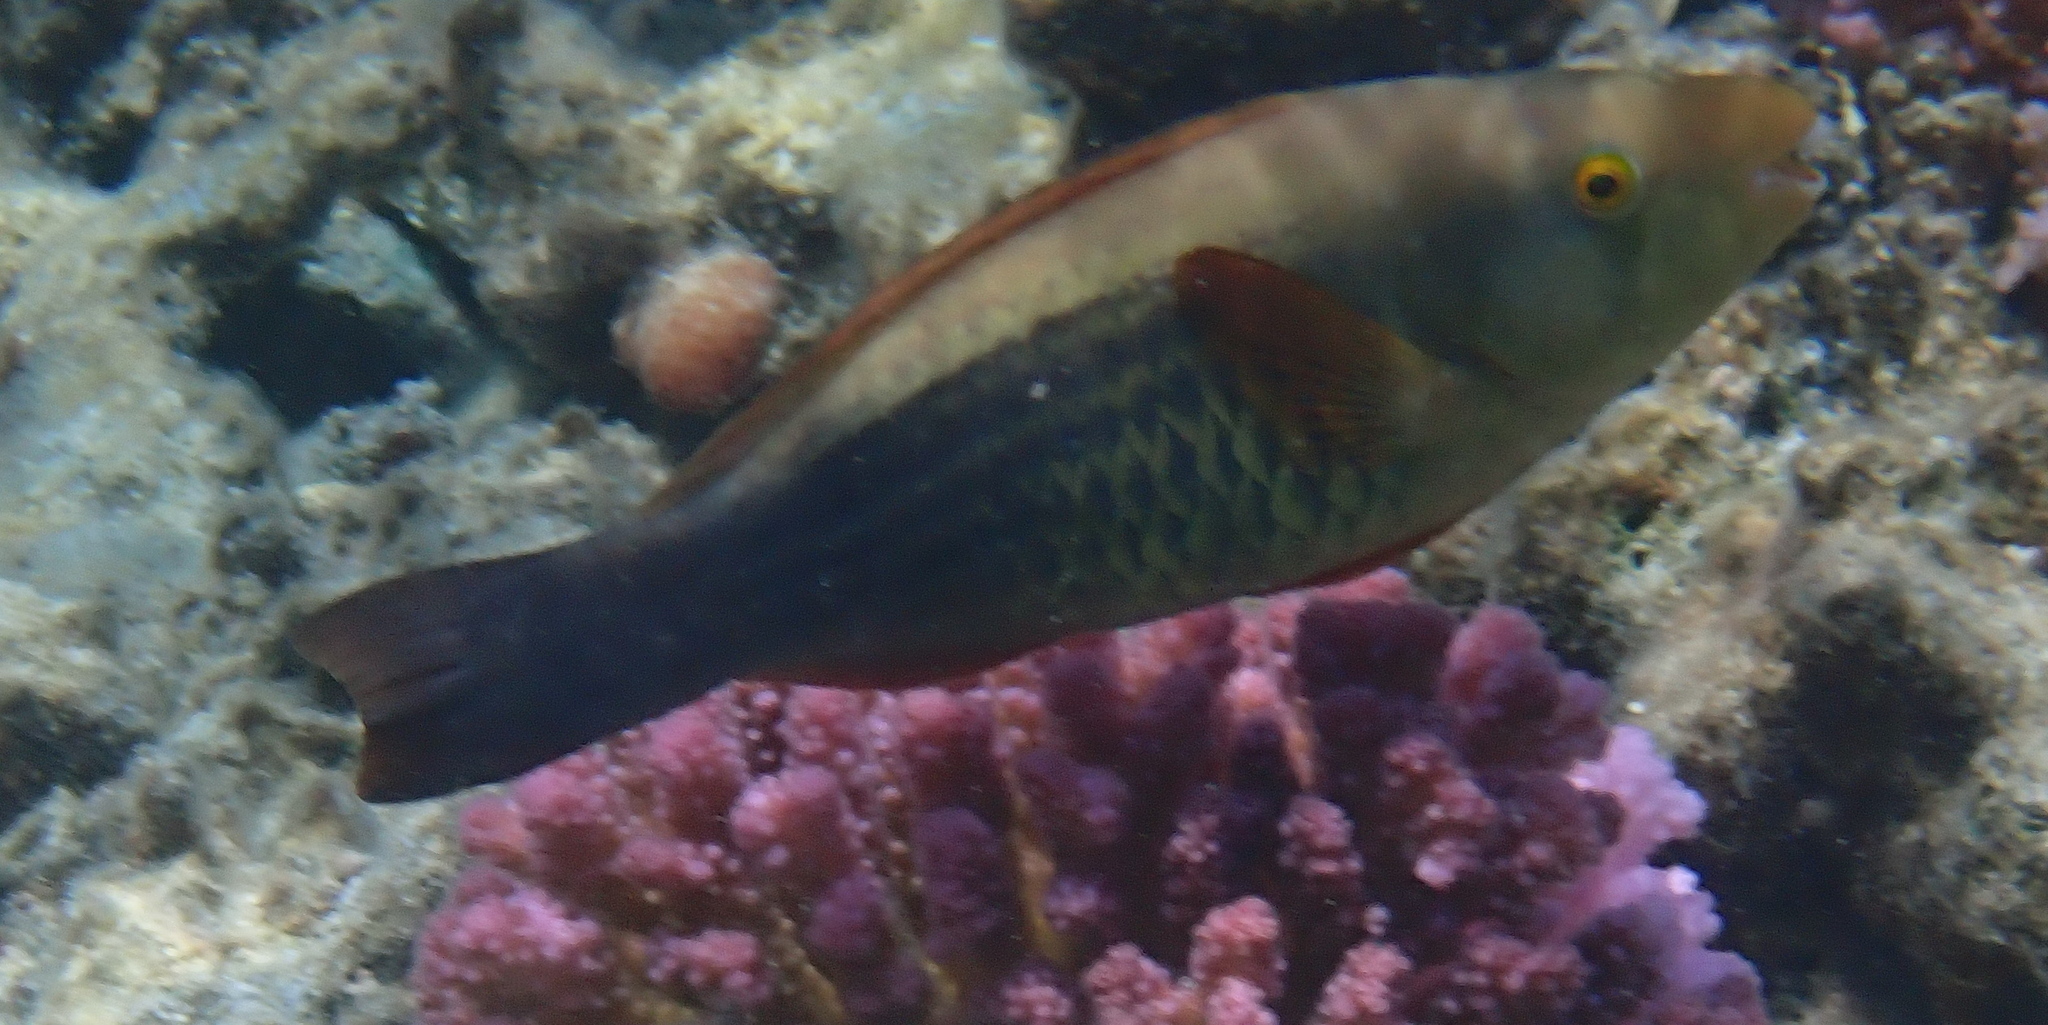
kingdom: Animalia
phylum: Chordata
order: Perciformes
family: Scaridae
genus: Scarus
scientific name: Scarus frenatus
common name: Bridled parrotfish
